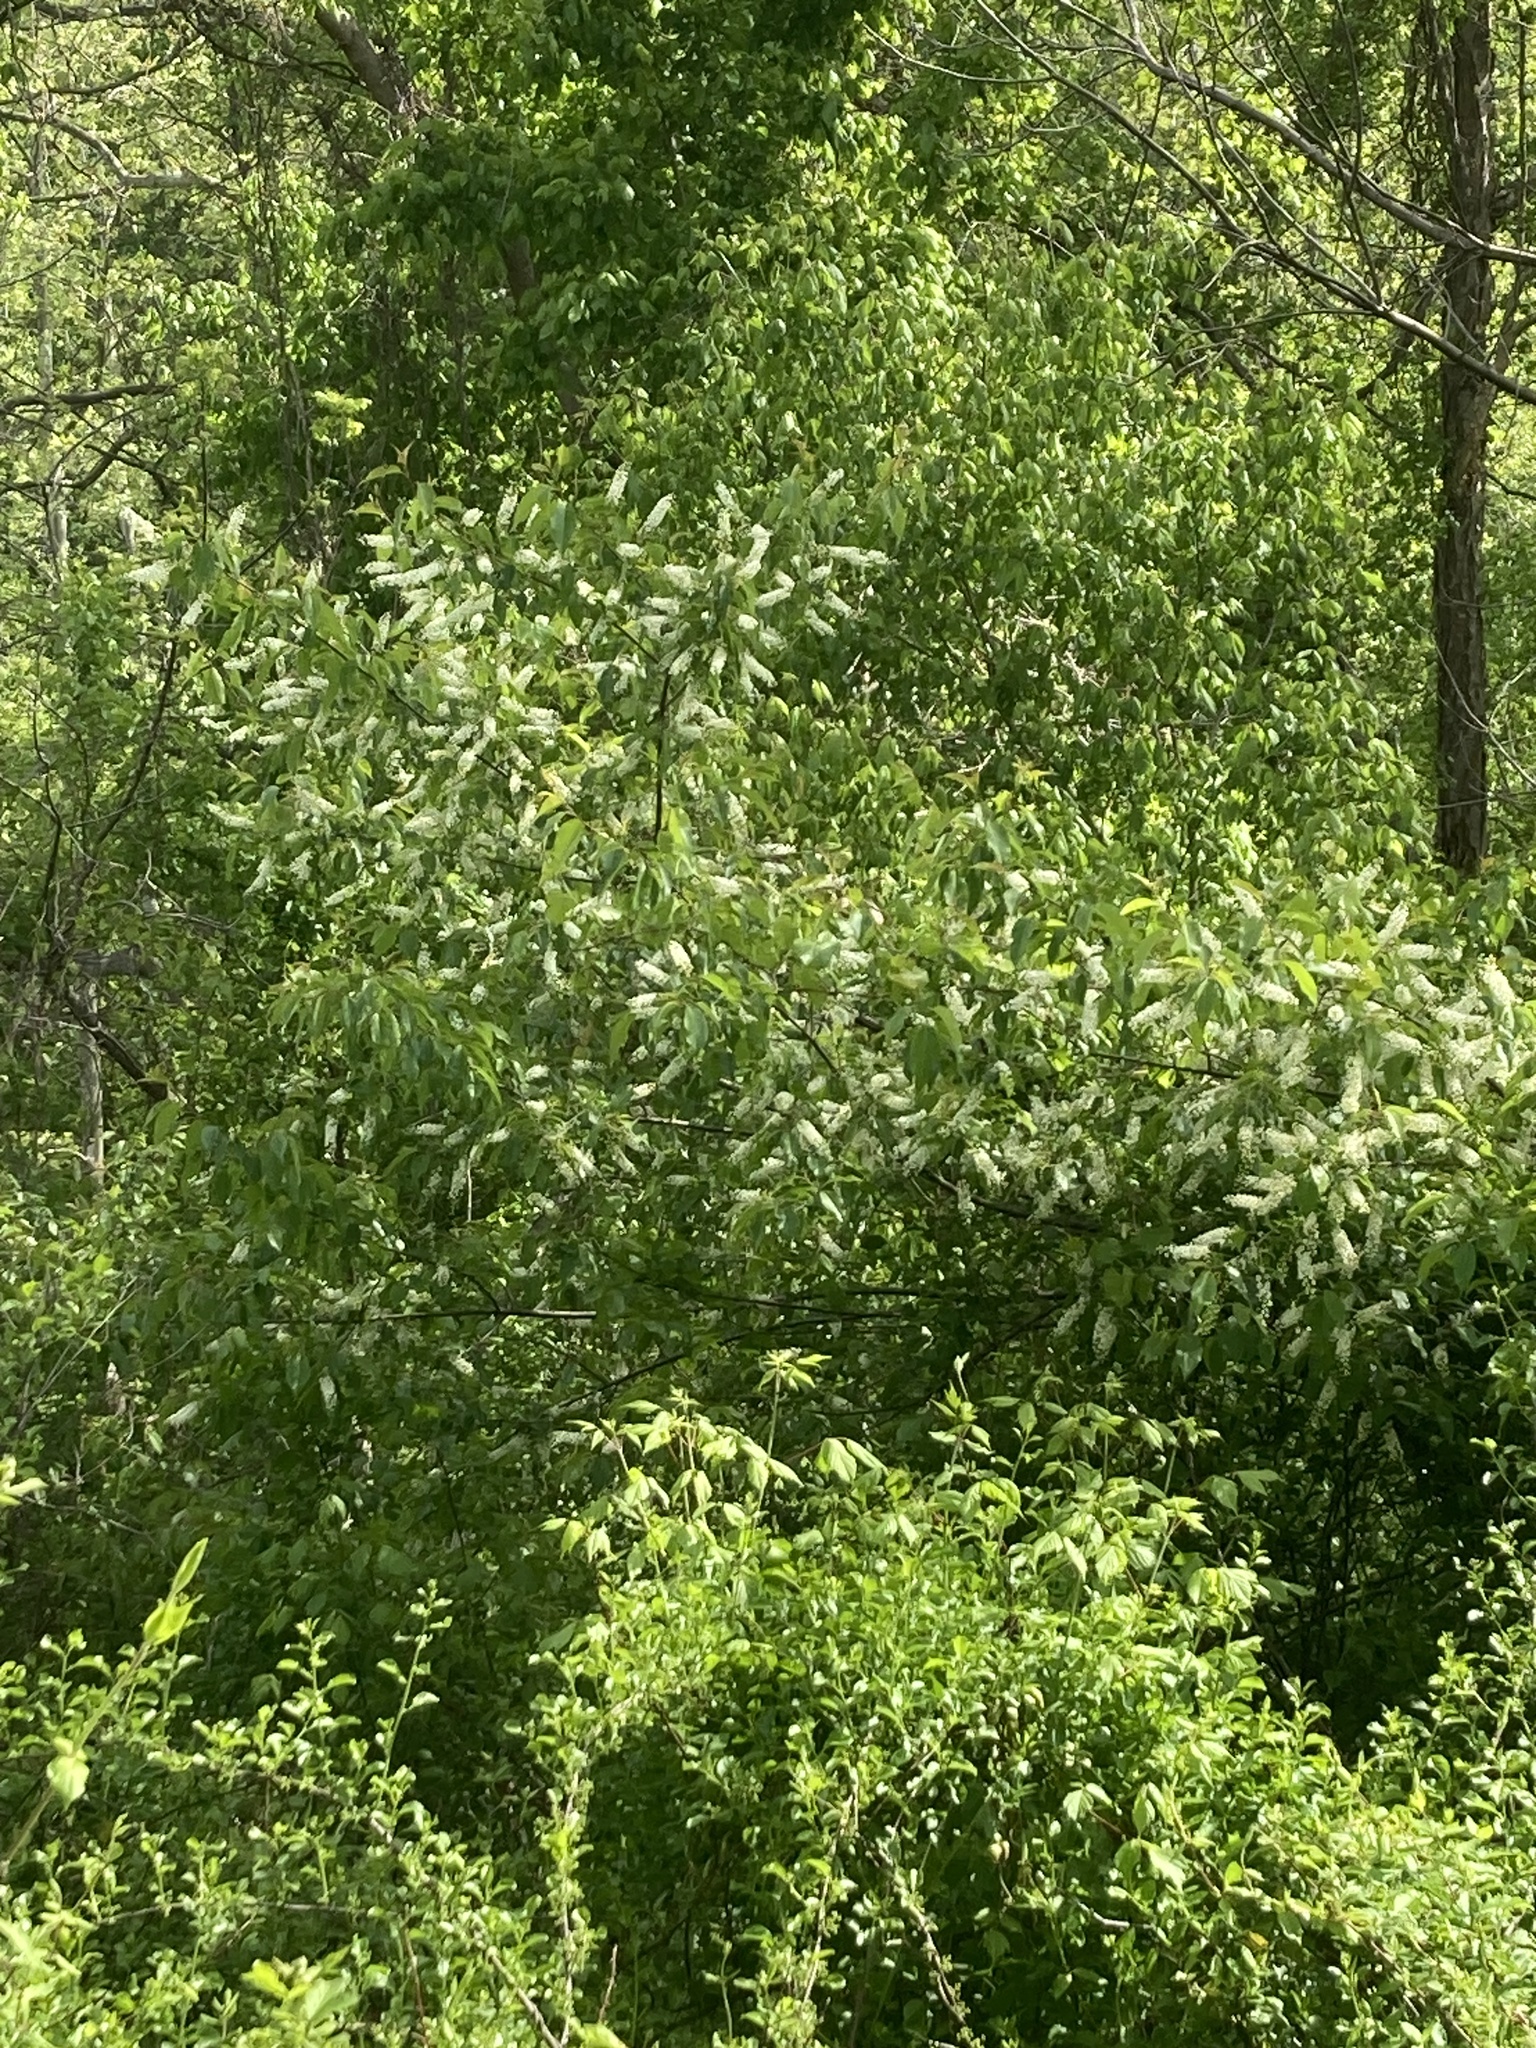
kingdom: Plantae
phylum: Tracheophyta
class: Magnoliopsida
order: Rosales
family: Rosaceae
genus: Prunus
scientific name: Prunus serotina
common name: Black cherry
